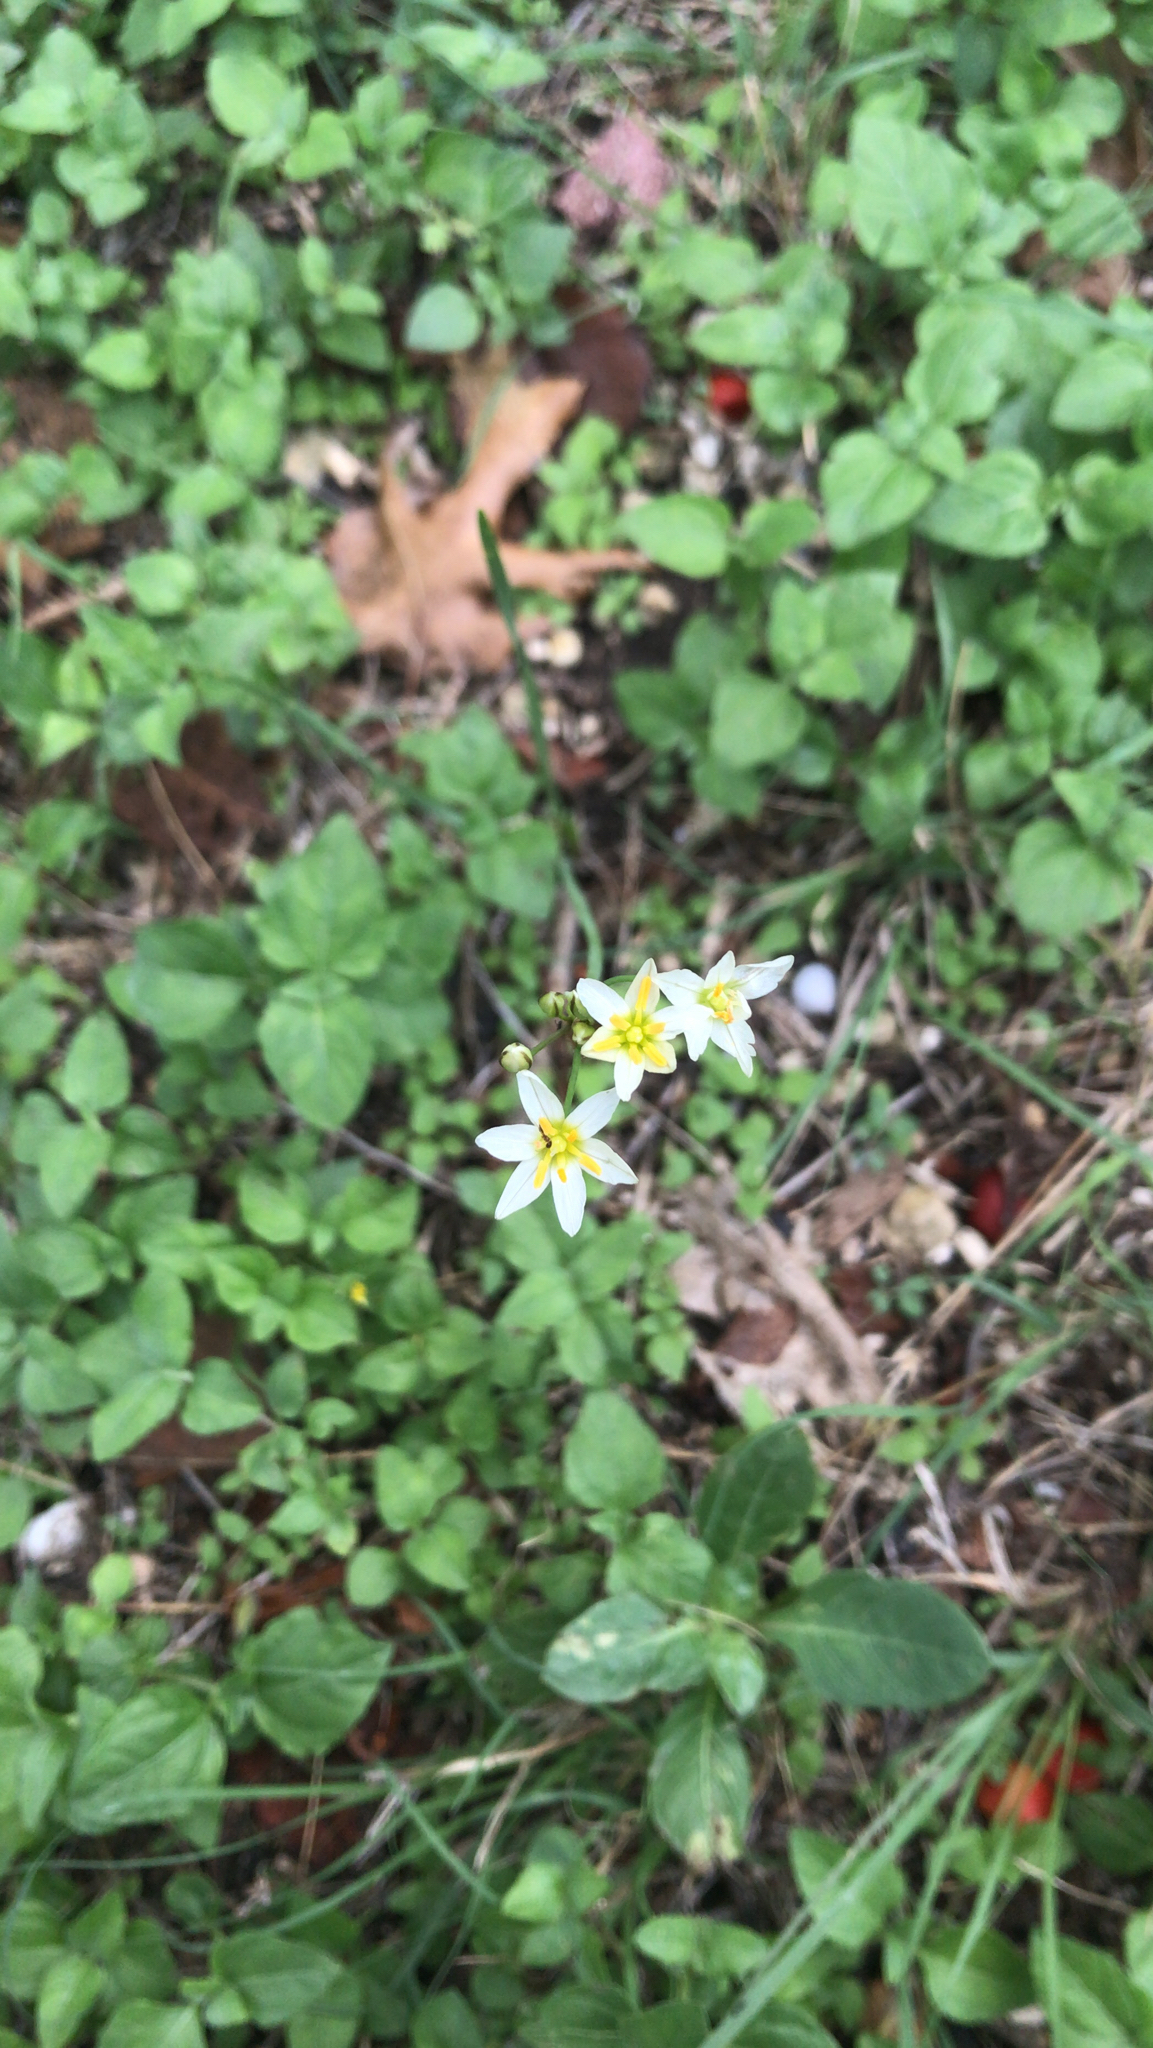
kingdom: Plantae
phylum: Tracheophyta
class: Liliopsida
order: Asparagales
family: Amaryllidaceae
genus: Nothoscordum
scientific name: Nothoscordum bivalve
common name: Crow-poison
